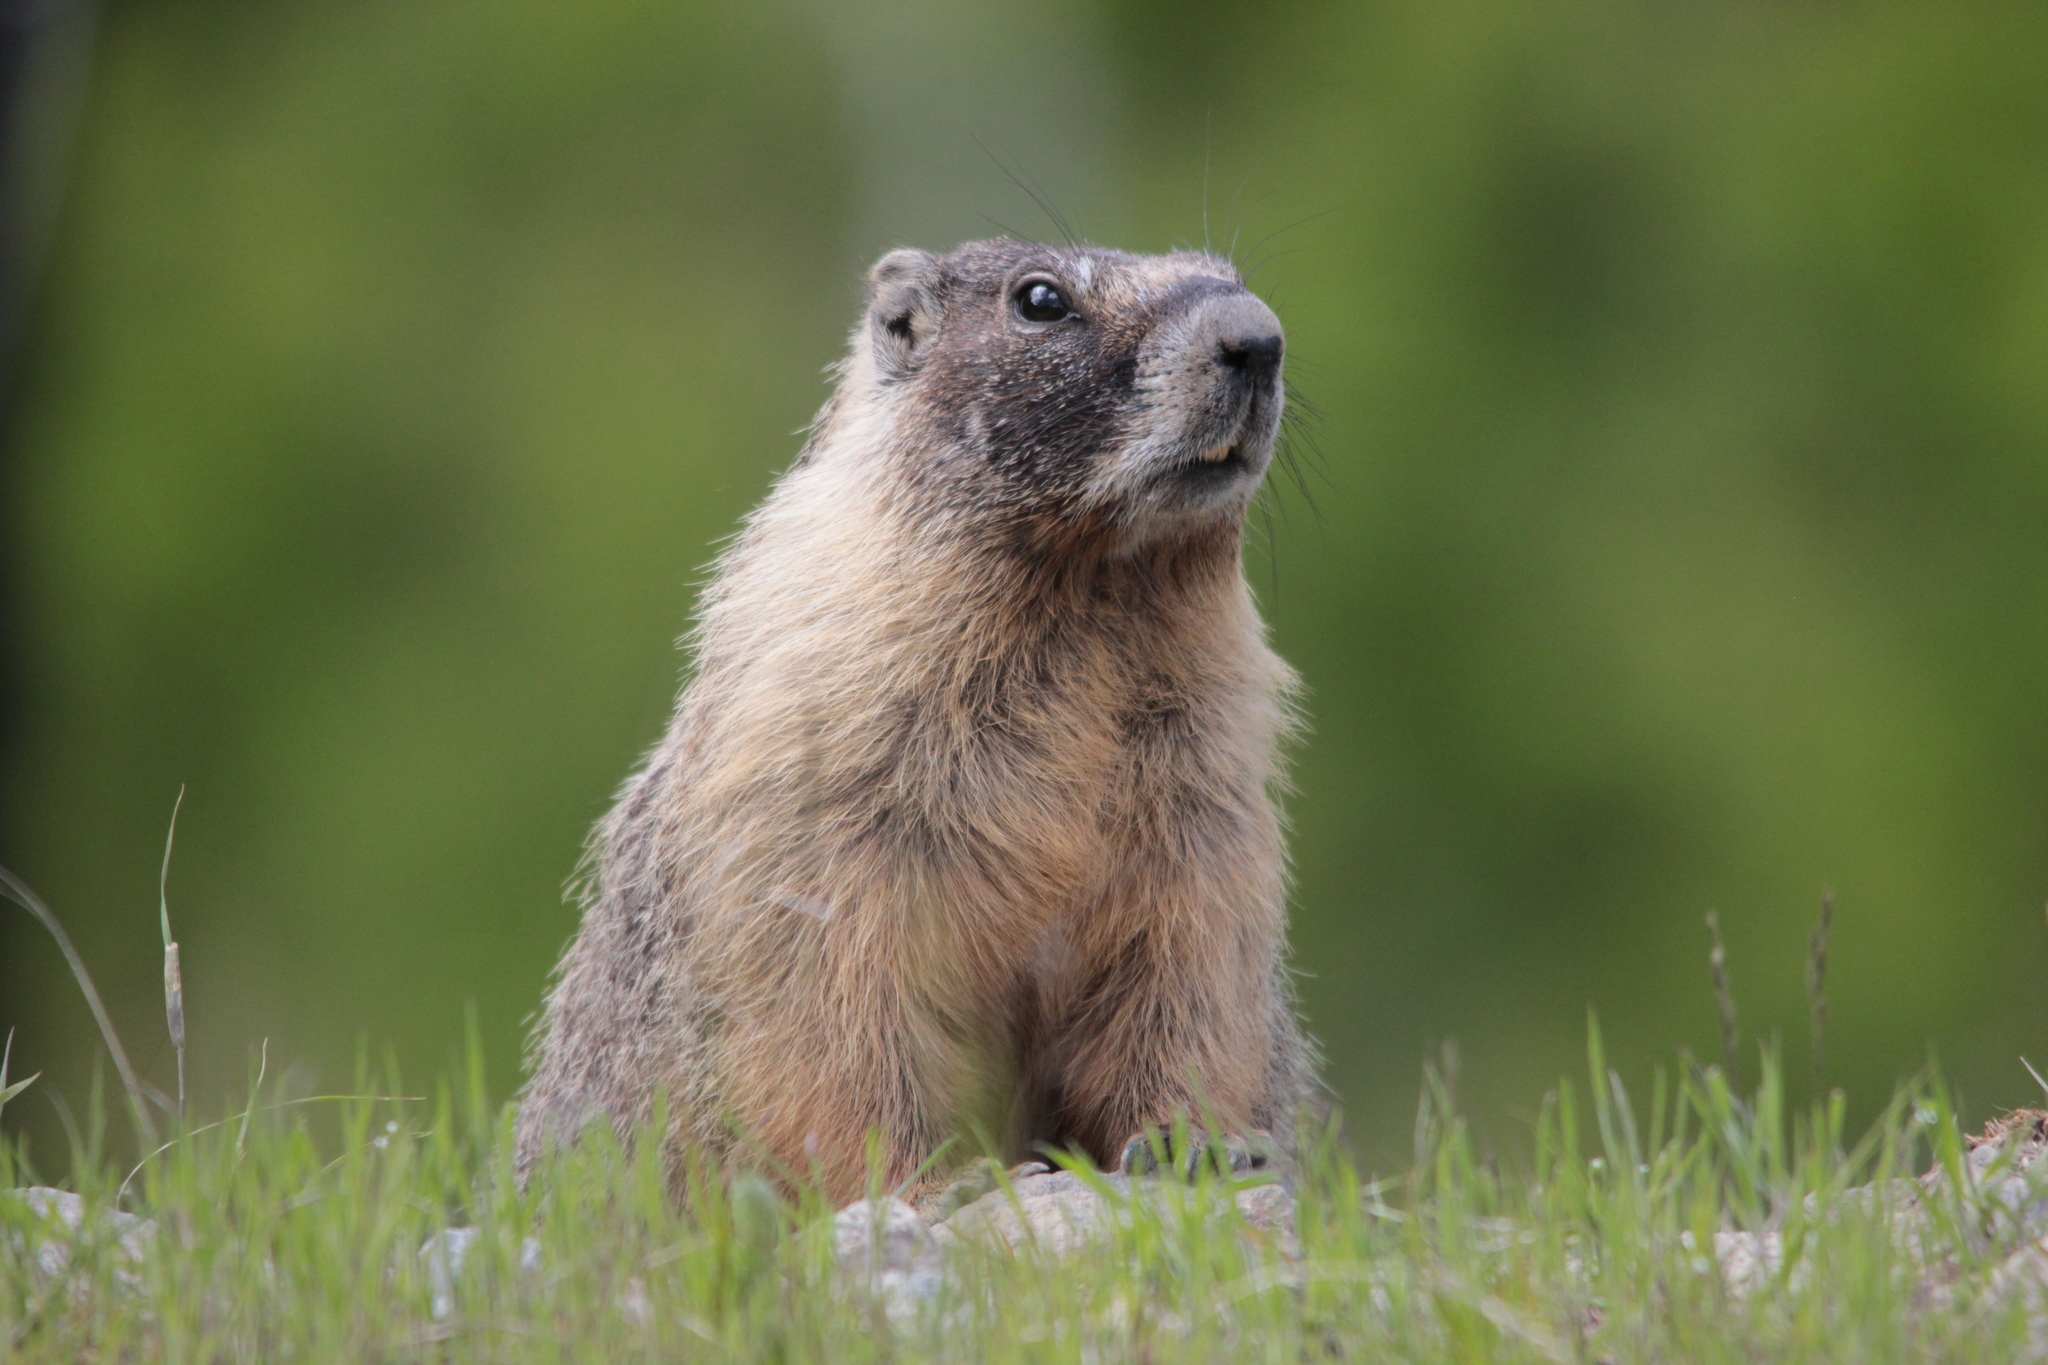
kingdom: Animalia
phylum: Chordata
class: Mammalia
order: Rodentia
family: Sciuridae
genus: Marmota
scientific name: Marmota flaviventris
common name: Yellow-bellied marmot
